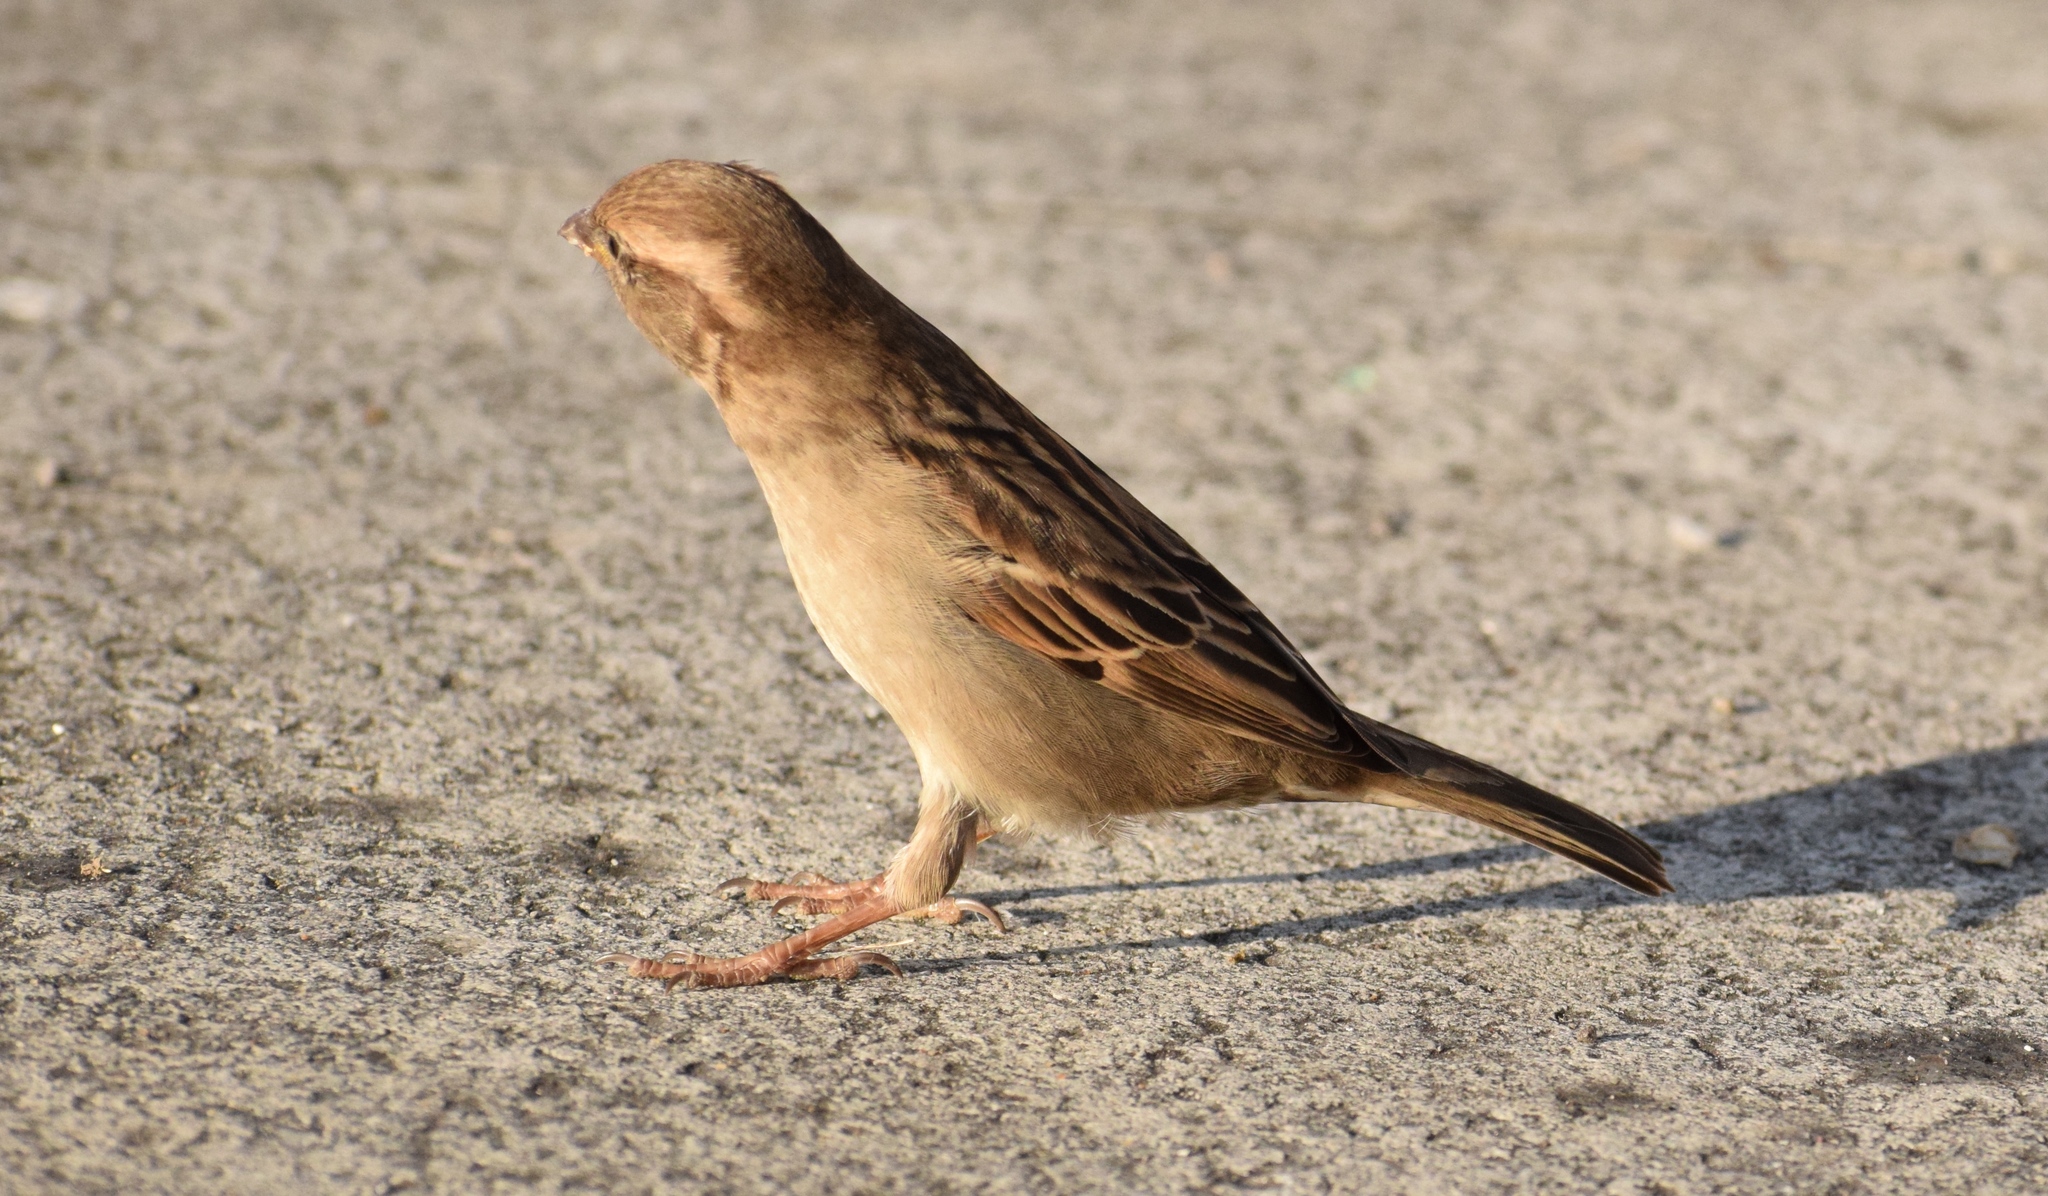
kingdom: Animalia
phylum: Chordata
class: Aves
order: Passeriformes
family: Passeridae
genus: Passer
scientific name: Passer domesticus
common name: House sparrow
